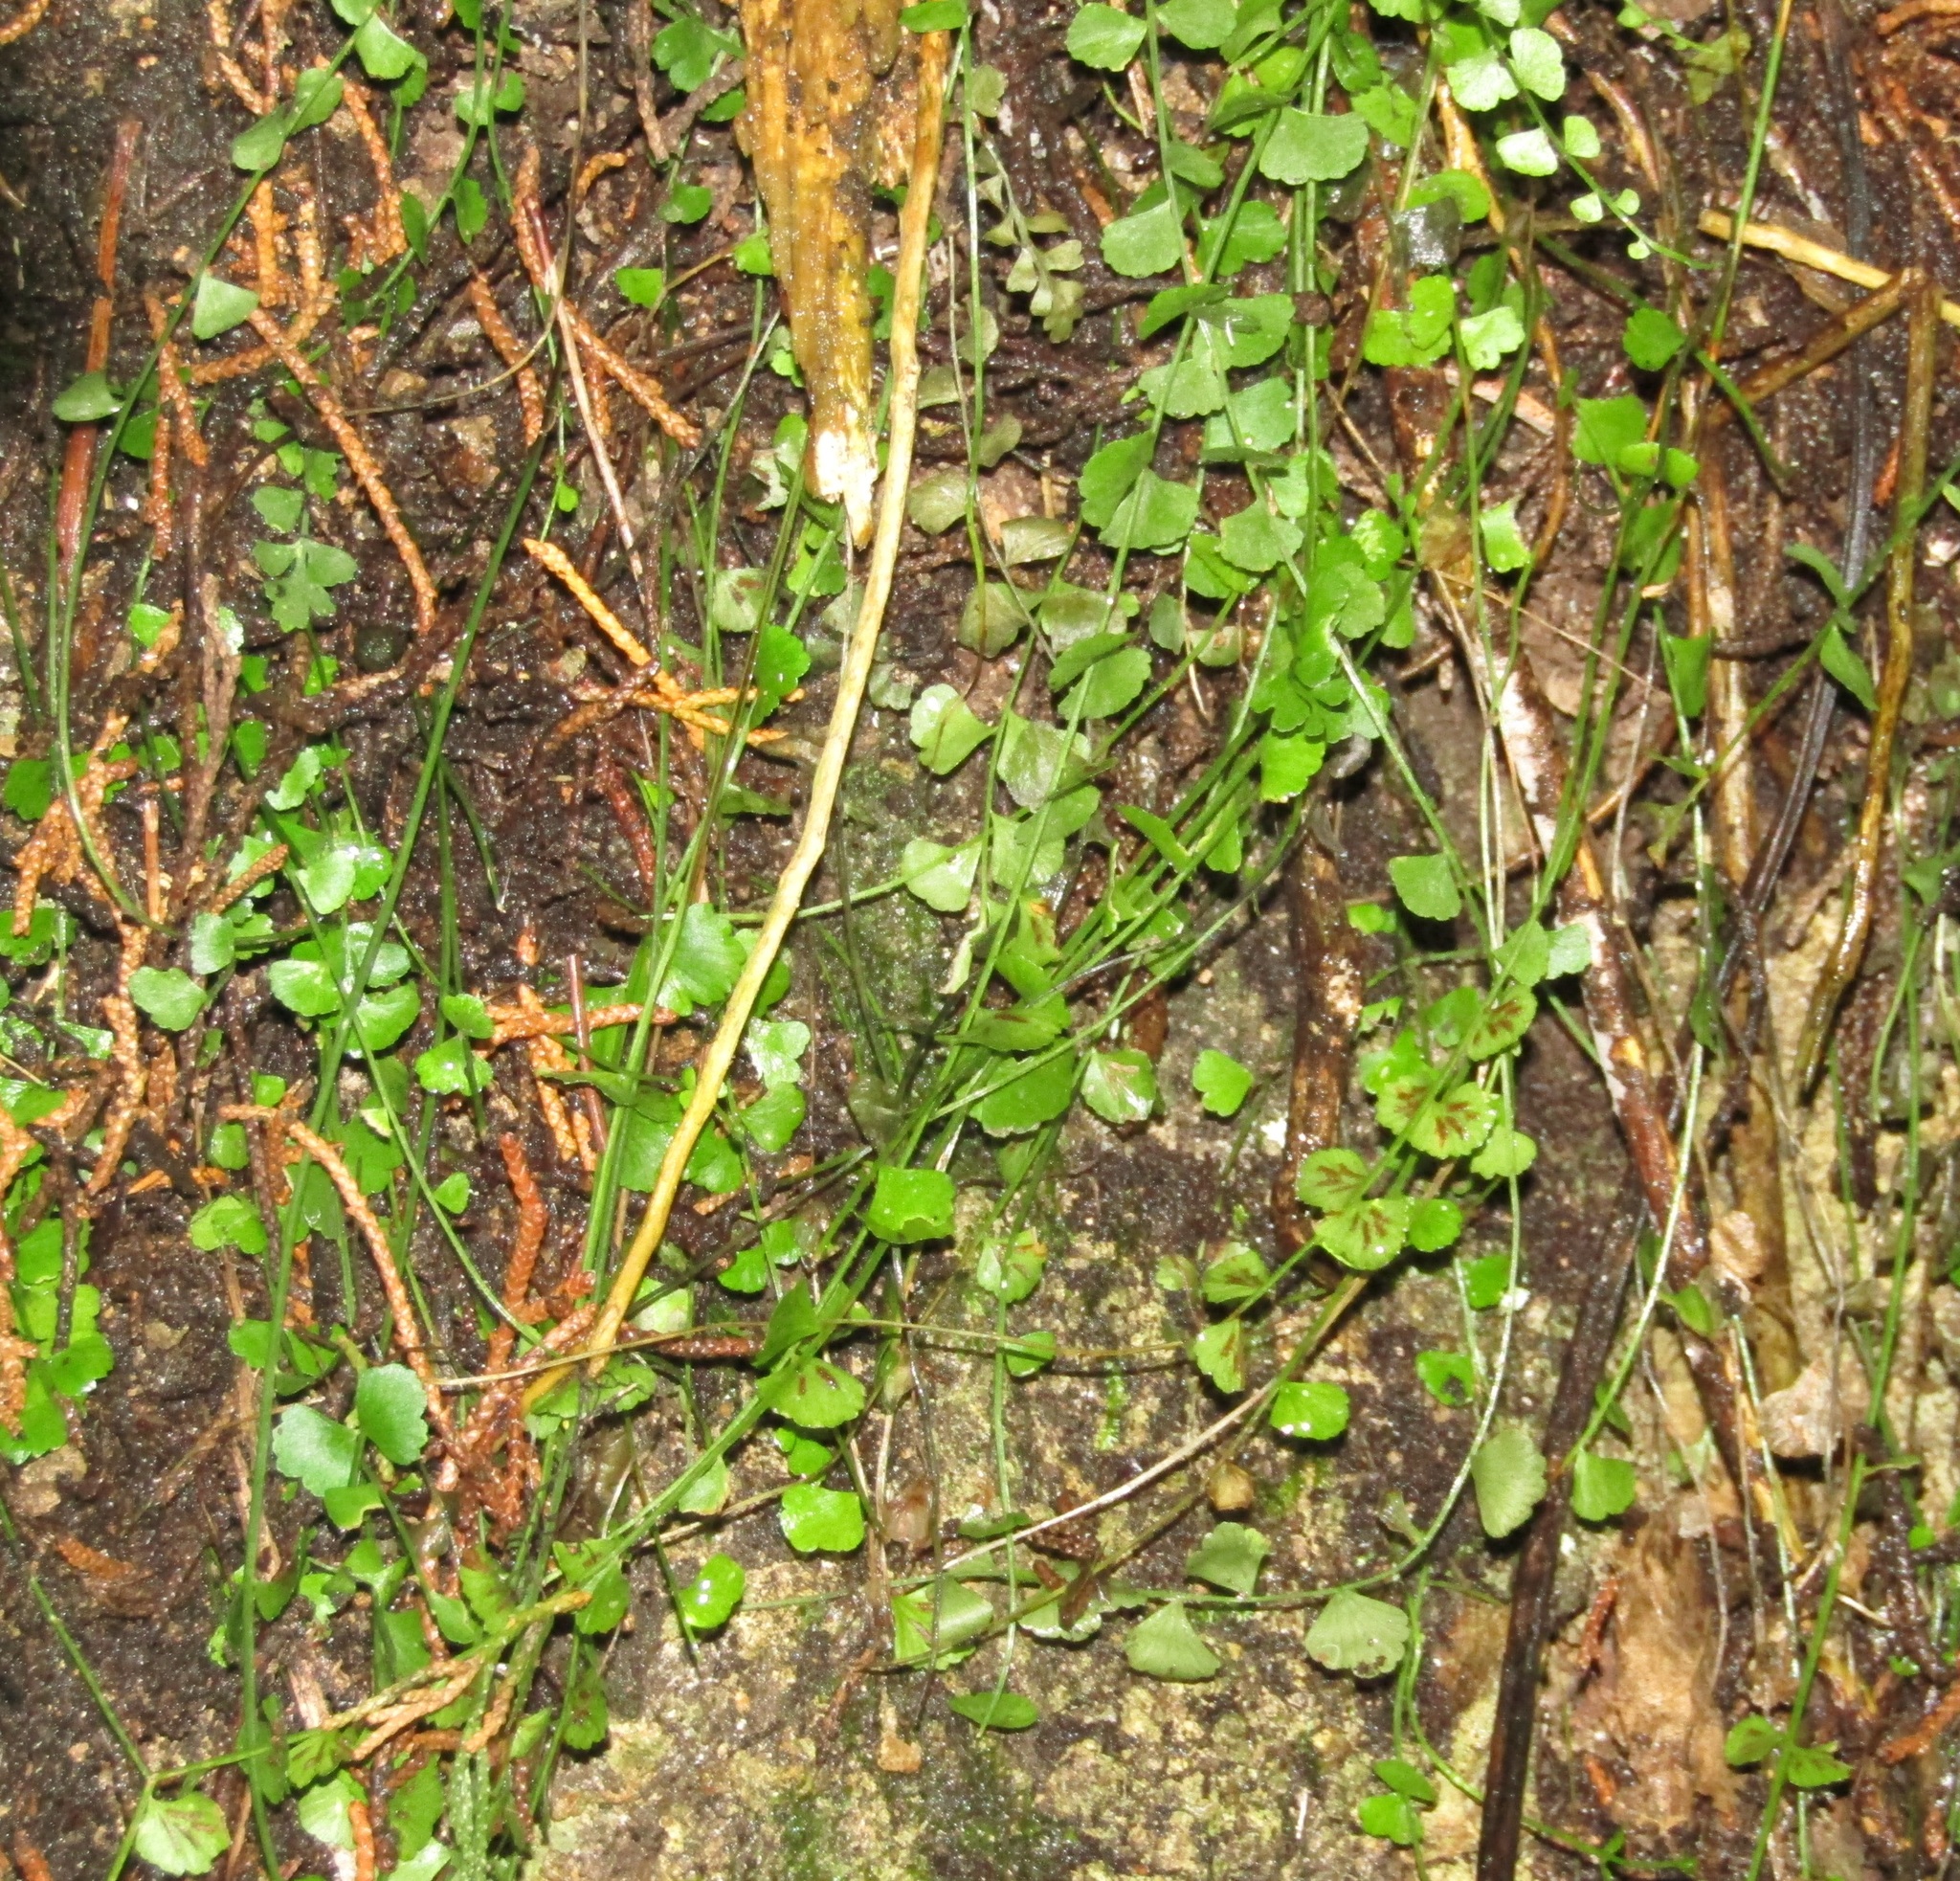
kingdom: Plantae
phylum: Tracheophyta
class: Polypodiopsida
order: Polypodiales
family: Aspleniaceae
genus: Asplenium
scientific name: Asplenium flabellifolium
